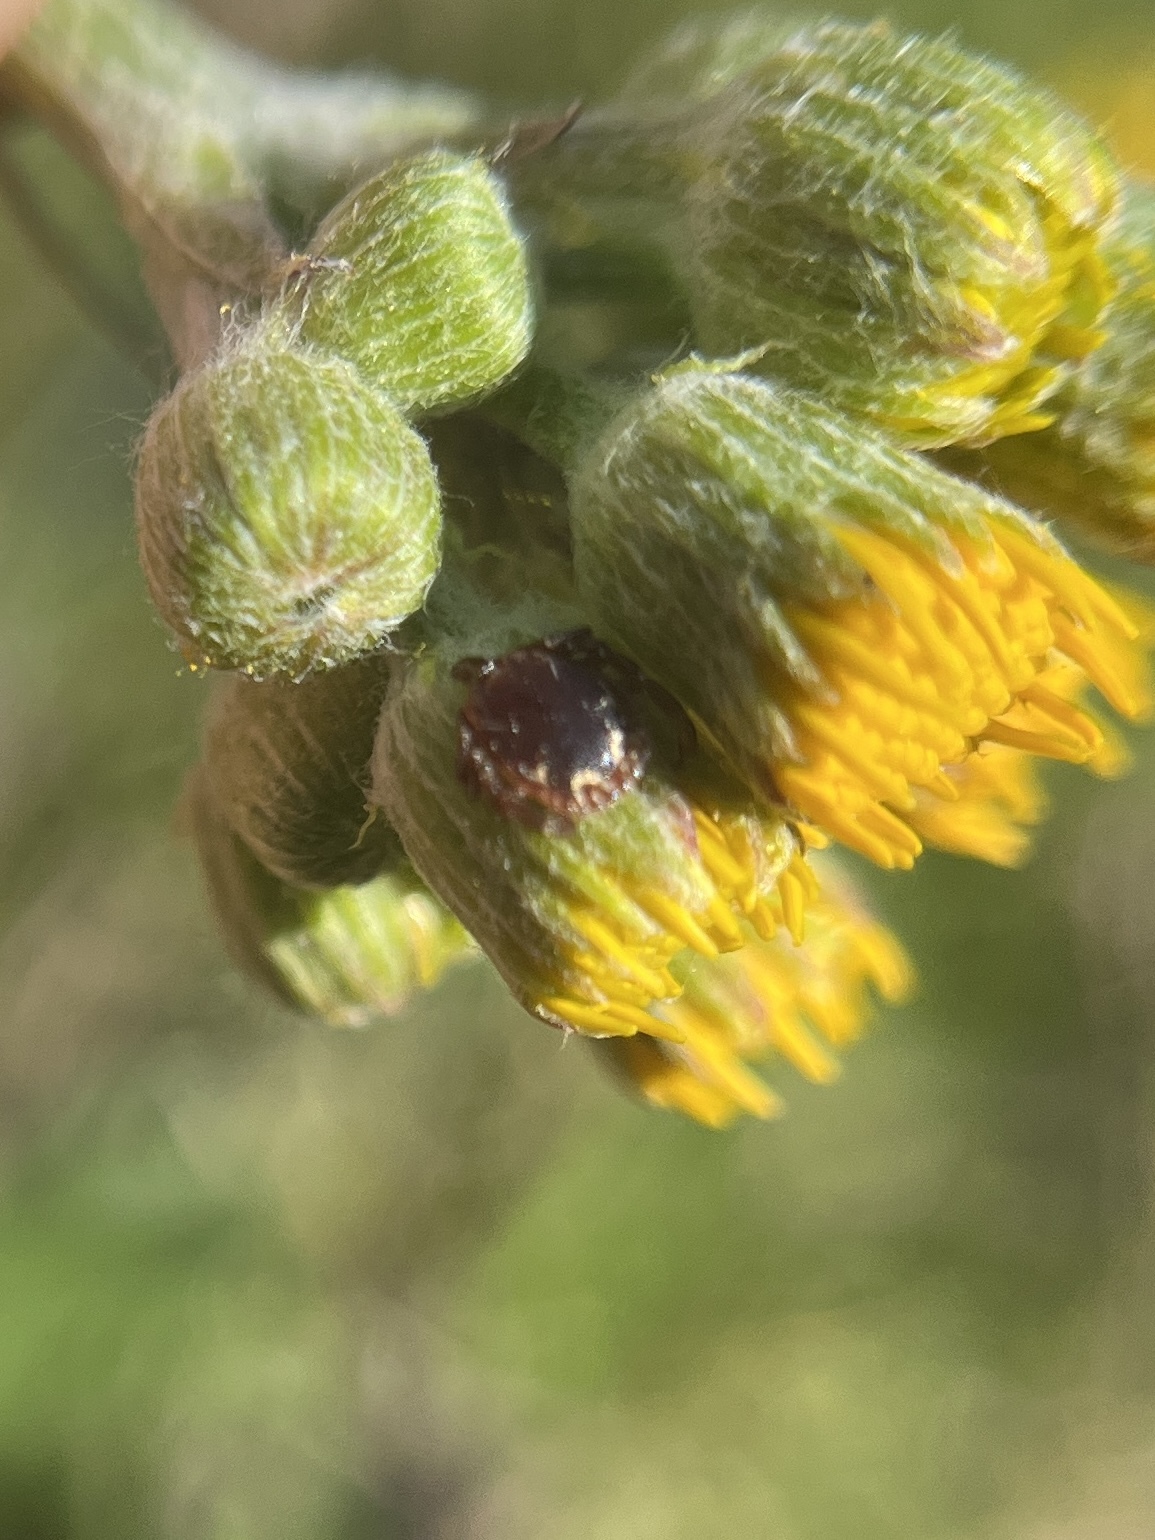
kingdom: Animalia
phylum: Arthropoda
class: Arachnida
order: Ixodida
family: Ixodidae
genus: Amblyomma
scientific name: Amblyomma americanum
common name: Lone star tick
